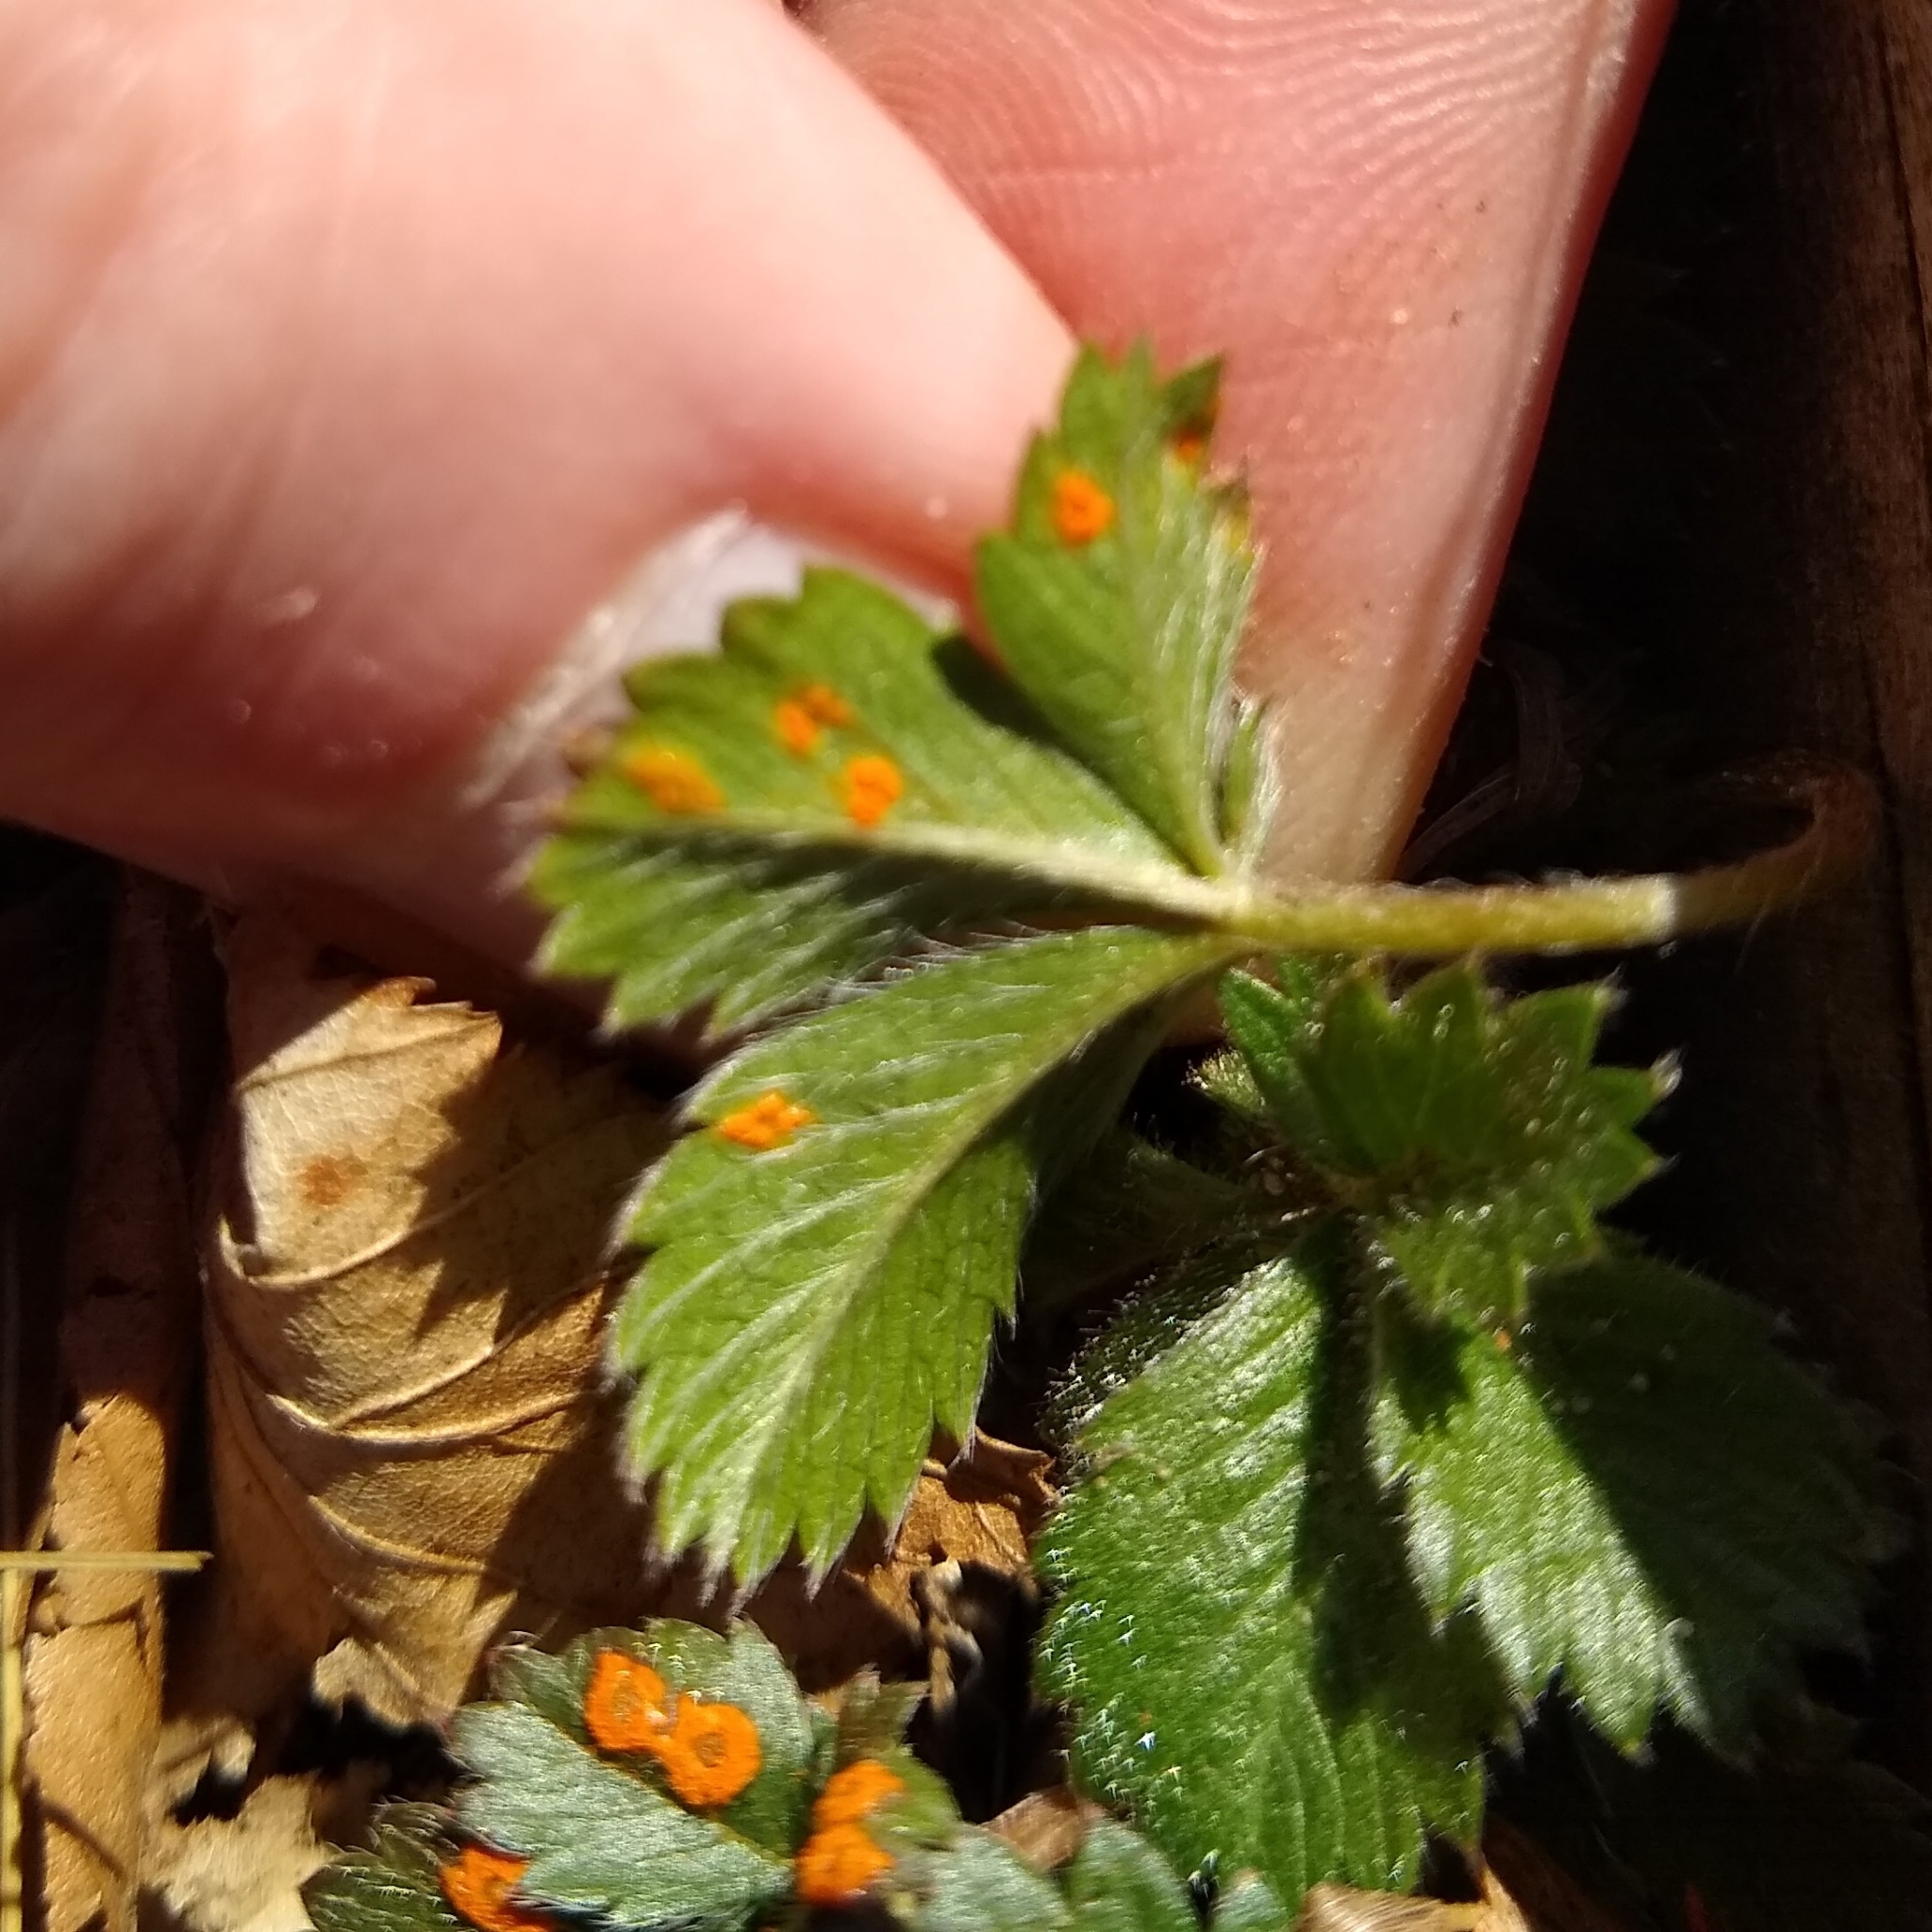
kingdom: Plantae
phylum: Tracheophyta
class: Magnoliopsida
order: Rosales
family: Rosaceae
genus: Potentilla
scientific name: Potentilla canadensis
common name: Canada cinquefoil
